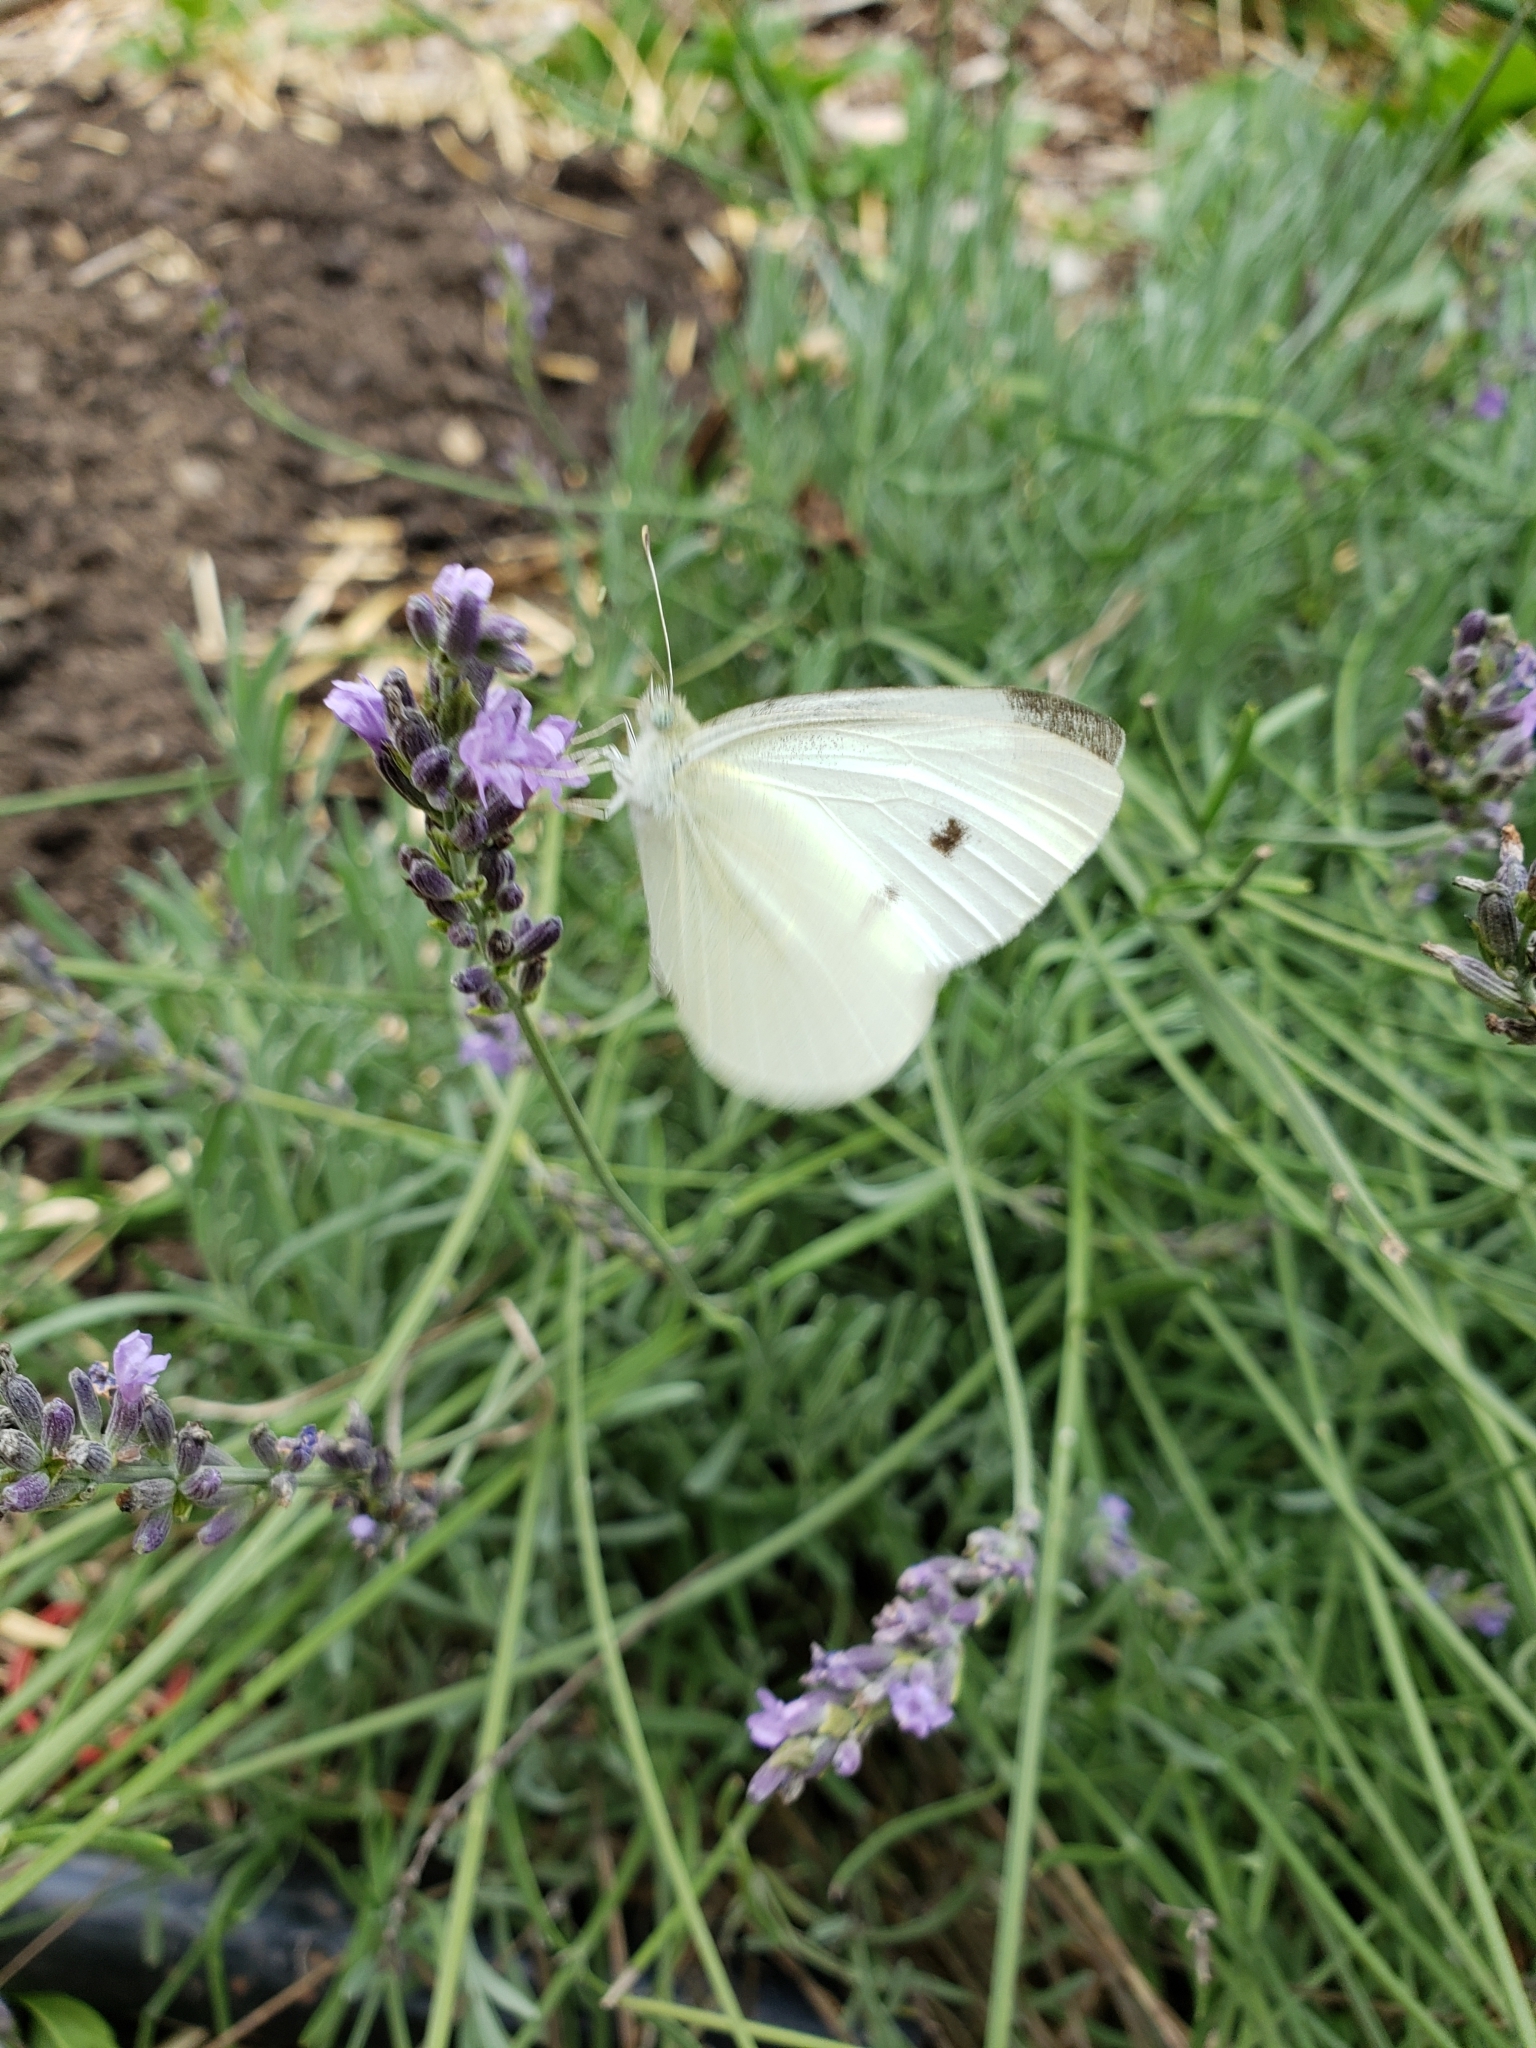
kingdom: Animalia
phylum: Arthropoda
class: Insecta
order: Lepidoptera
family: Pieridae
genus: Pieris
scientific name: Pieris rapae
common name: Small white
